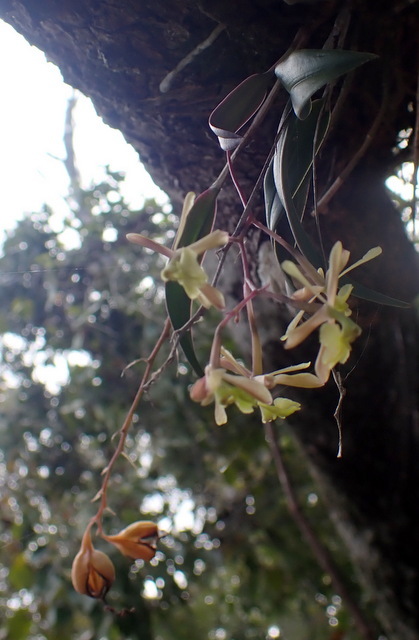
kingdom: Plantae
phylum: Tracheophyta
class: Liliopsida
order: Asparagales
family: Orchidaceae
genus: Epidendrum
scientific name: Epidendrum conopseum
